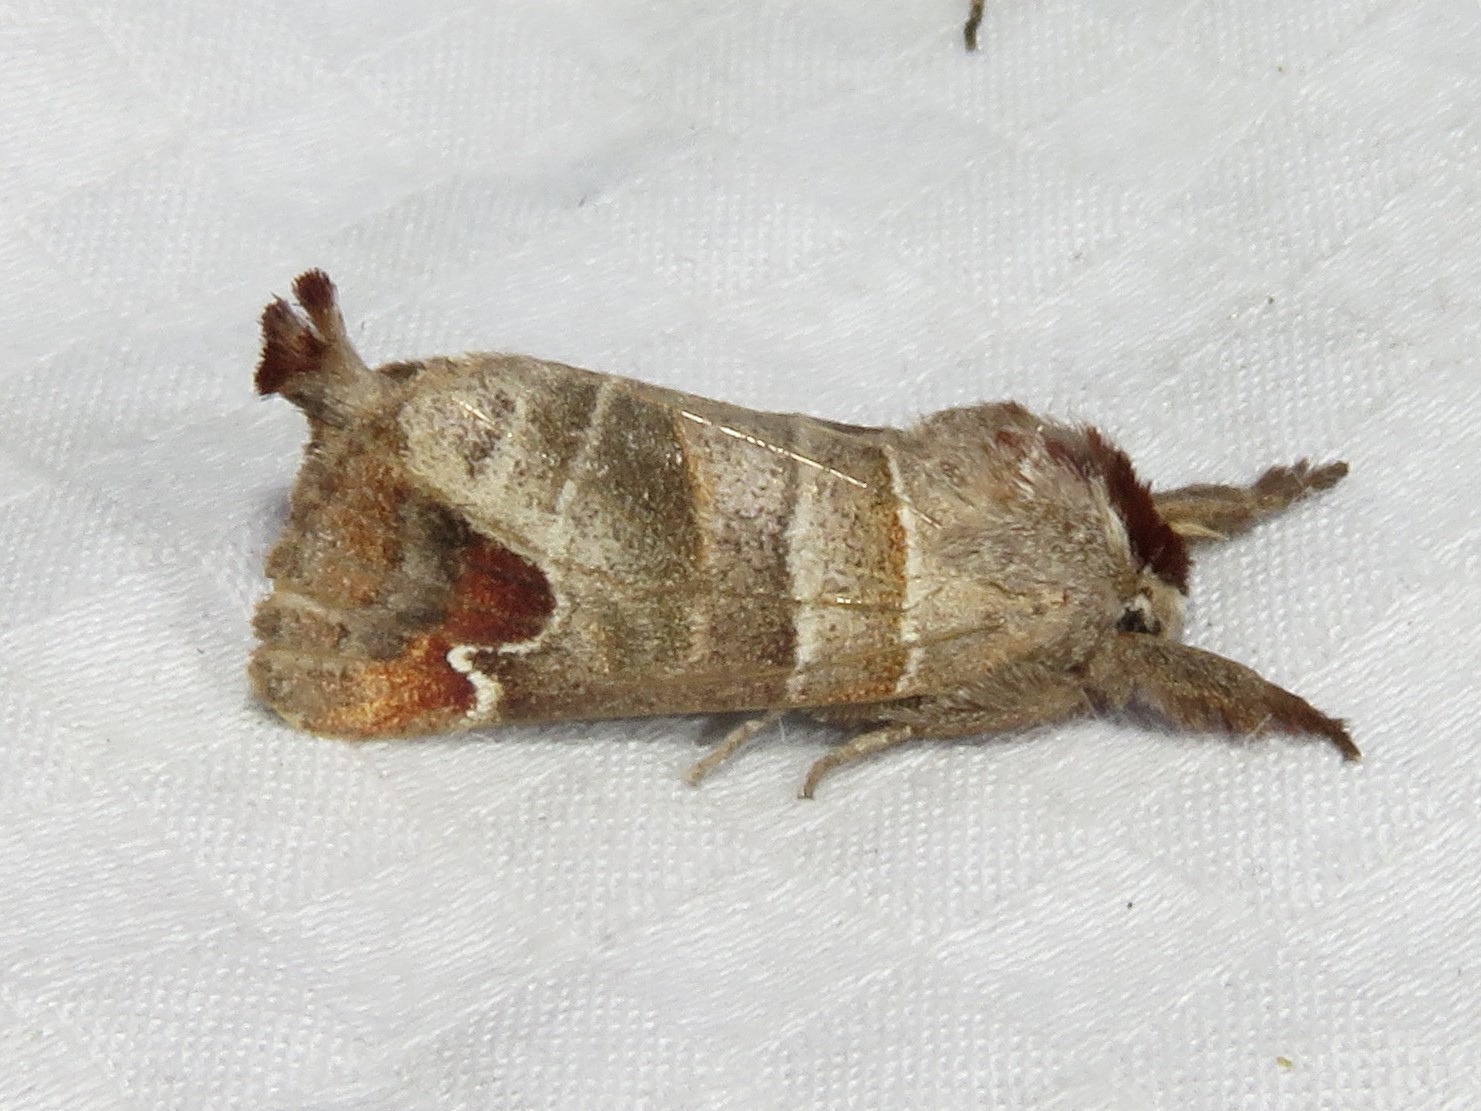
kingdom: Animalia
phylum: Arthropoda
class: Insecta
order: Lepidoptera
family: Notodontidae
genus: Clostera
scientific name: Clostera albosigma
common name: Sigmoid prominent
